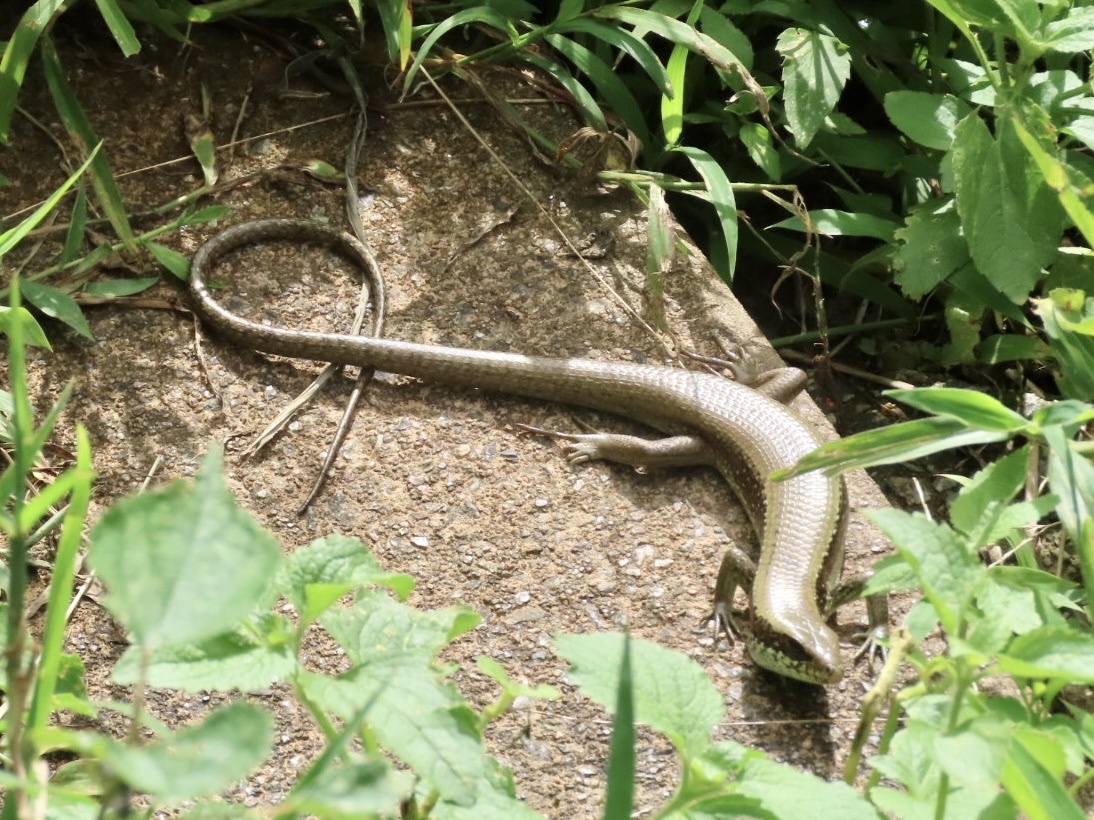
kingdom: Animalia
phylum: Chordata
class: Squamata
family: Scincidae
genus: Eutropis
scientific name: Eutropis longicaudata
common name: Long-tailed sun skink
